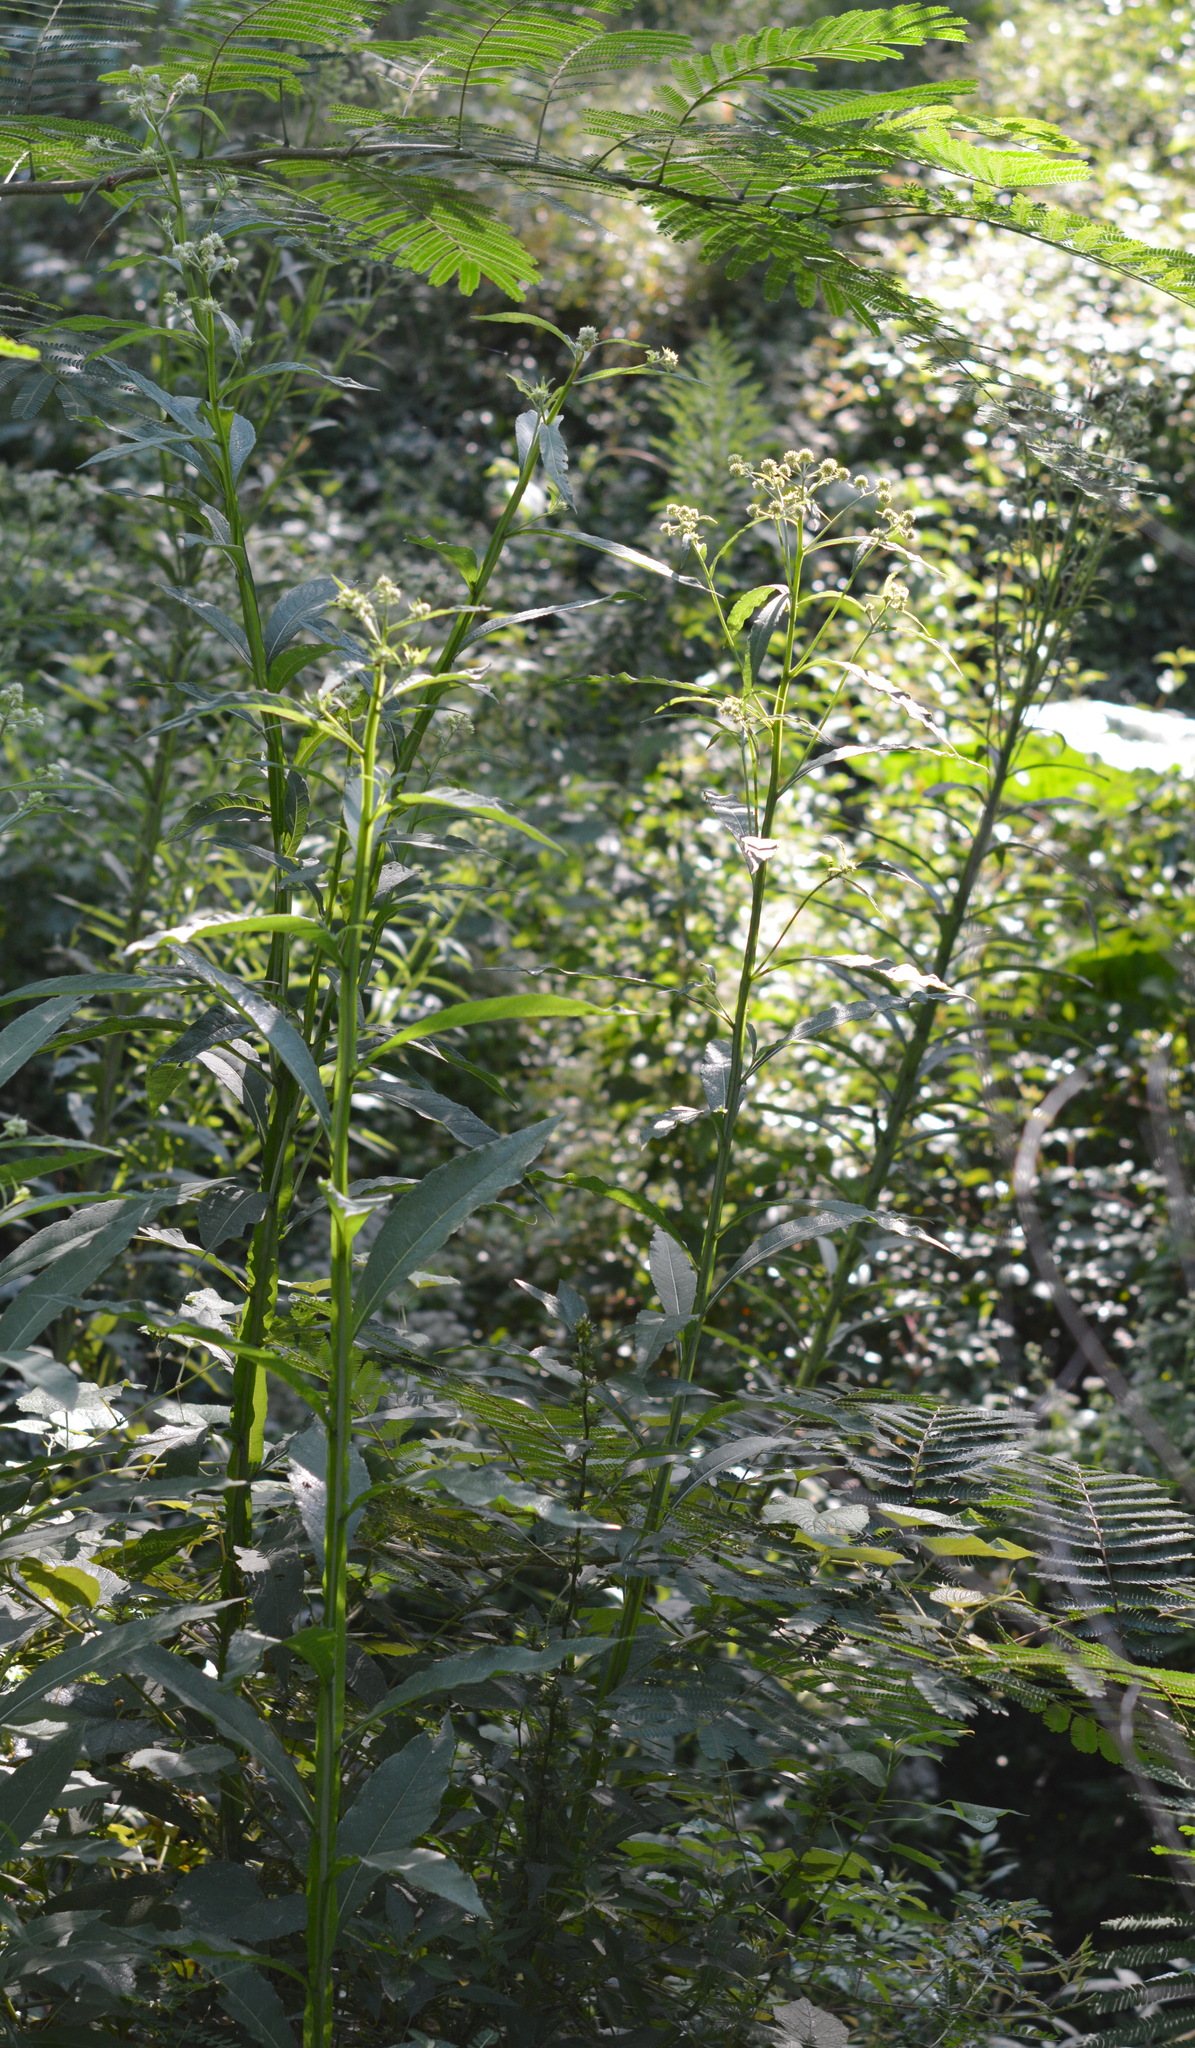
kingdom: Plantae
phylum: Tracheophyta
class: Magnoliopsida
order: Asterales
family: Asteraceae
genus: Verbesina
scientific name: Verbesina walteri
